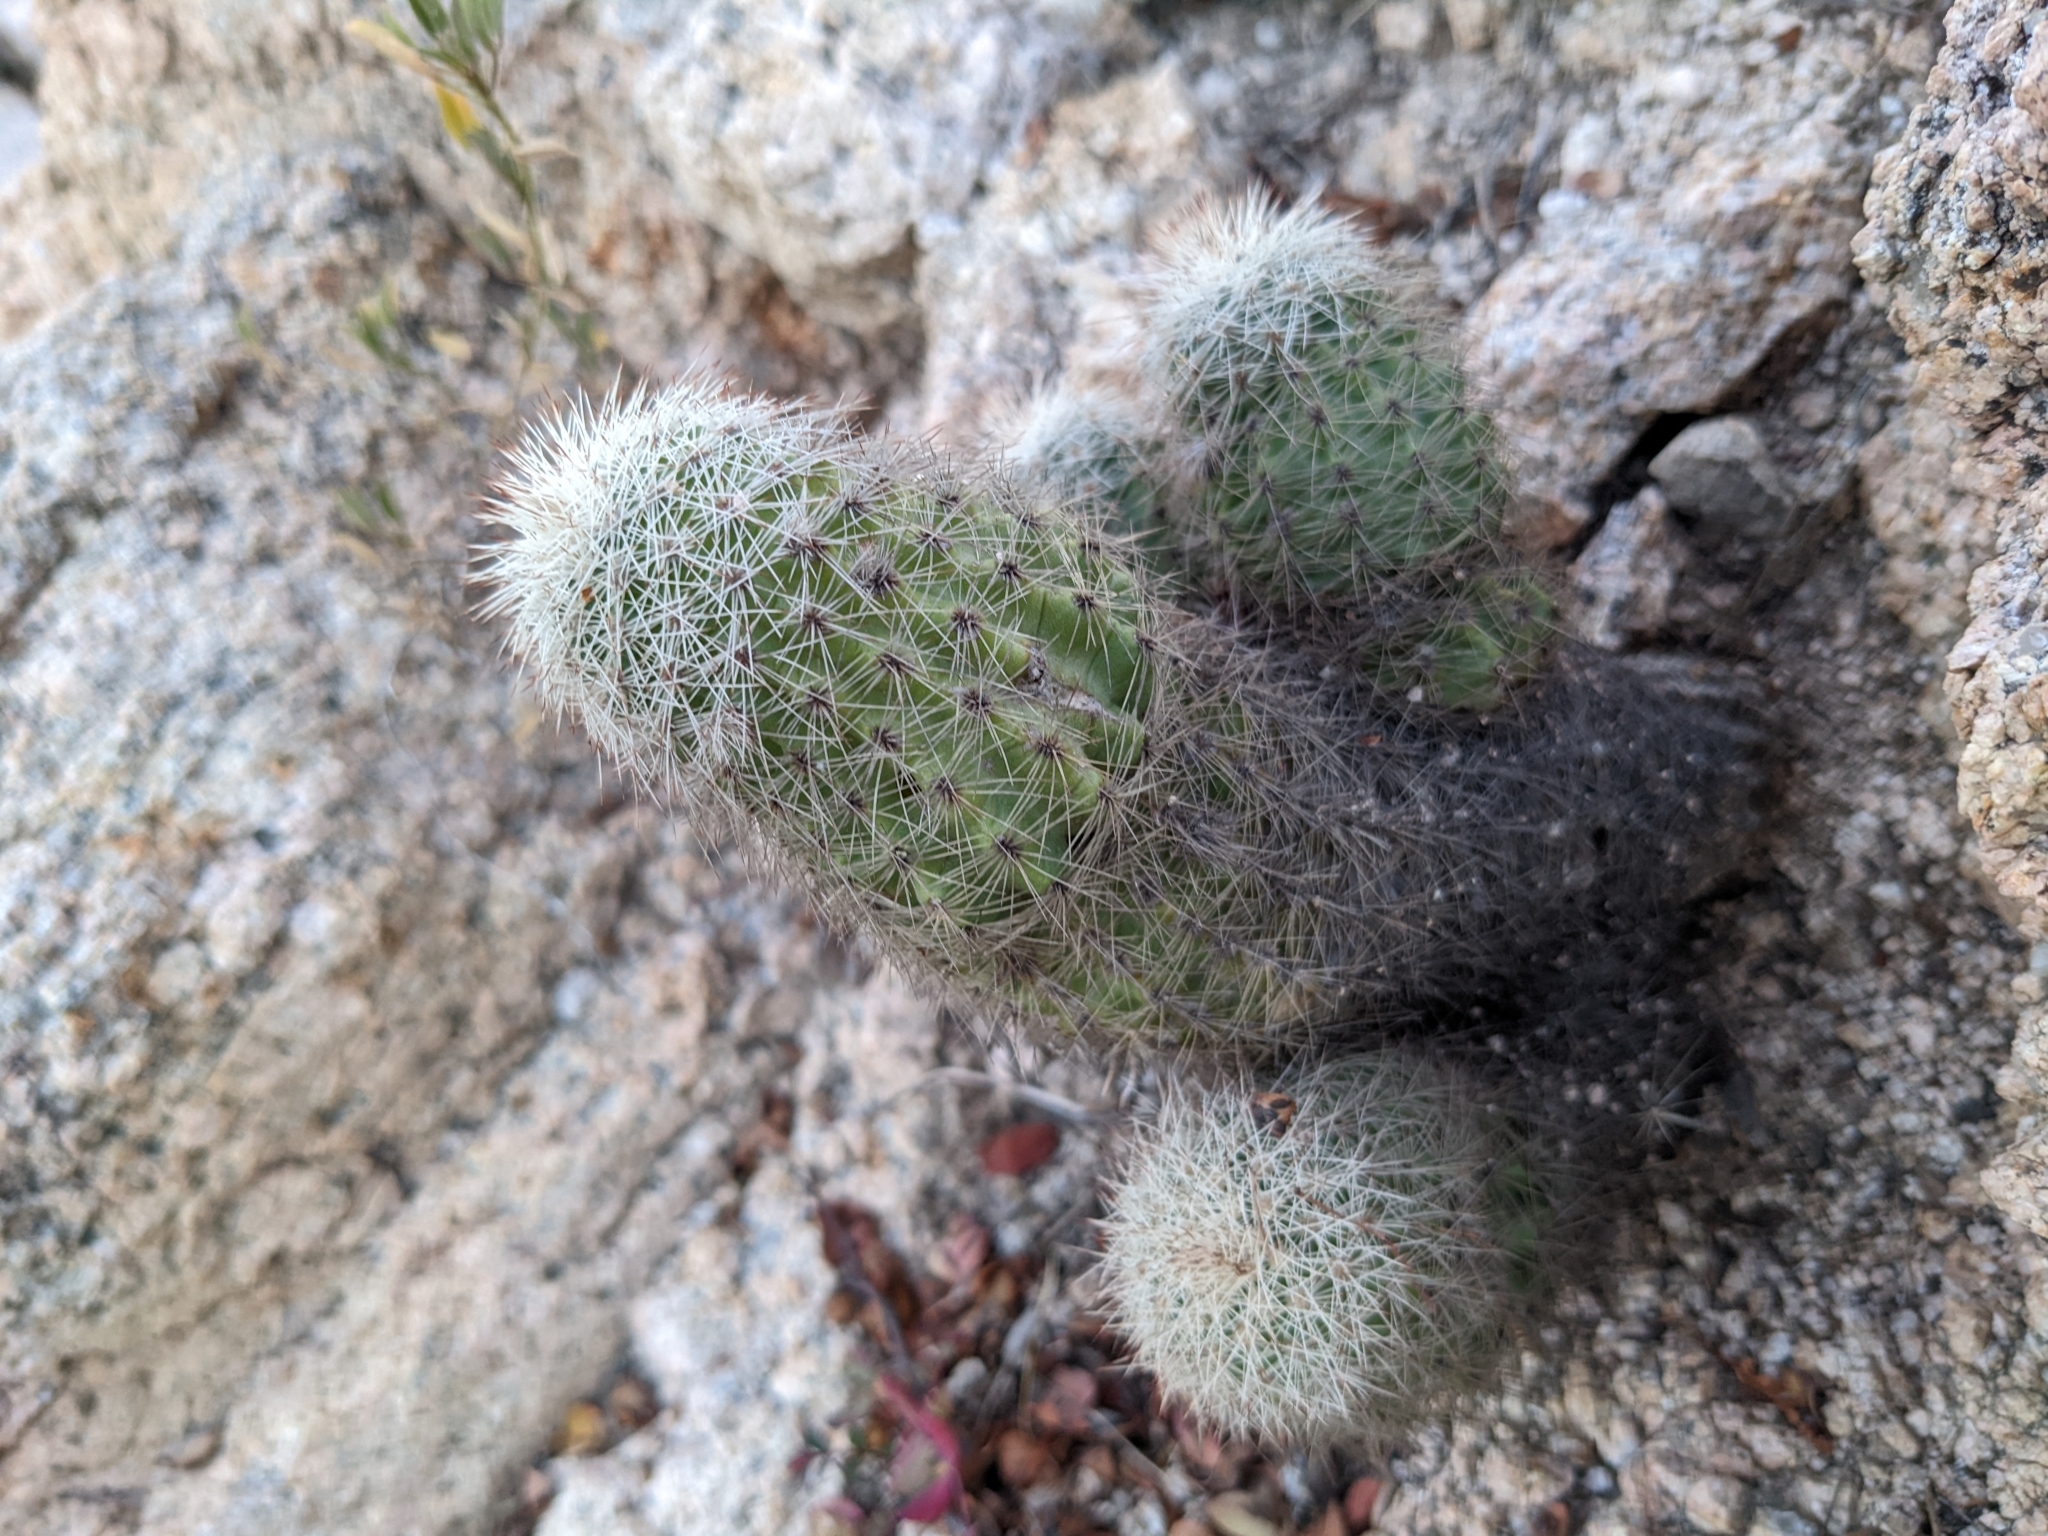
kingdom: Plantae
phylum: Tracheophyta
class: Magnoliopsida
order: Caryophyllales
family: Cactaceae
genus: Echinocereus
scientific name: Echinocereus sciurus
